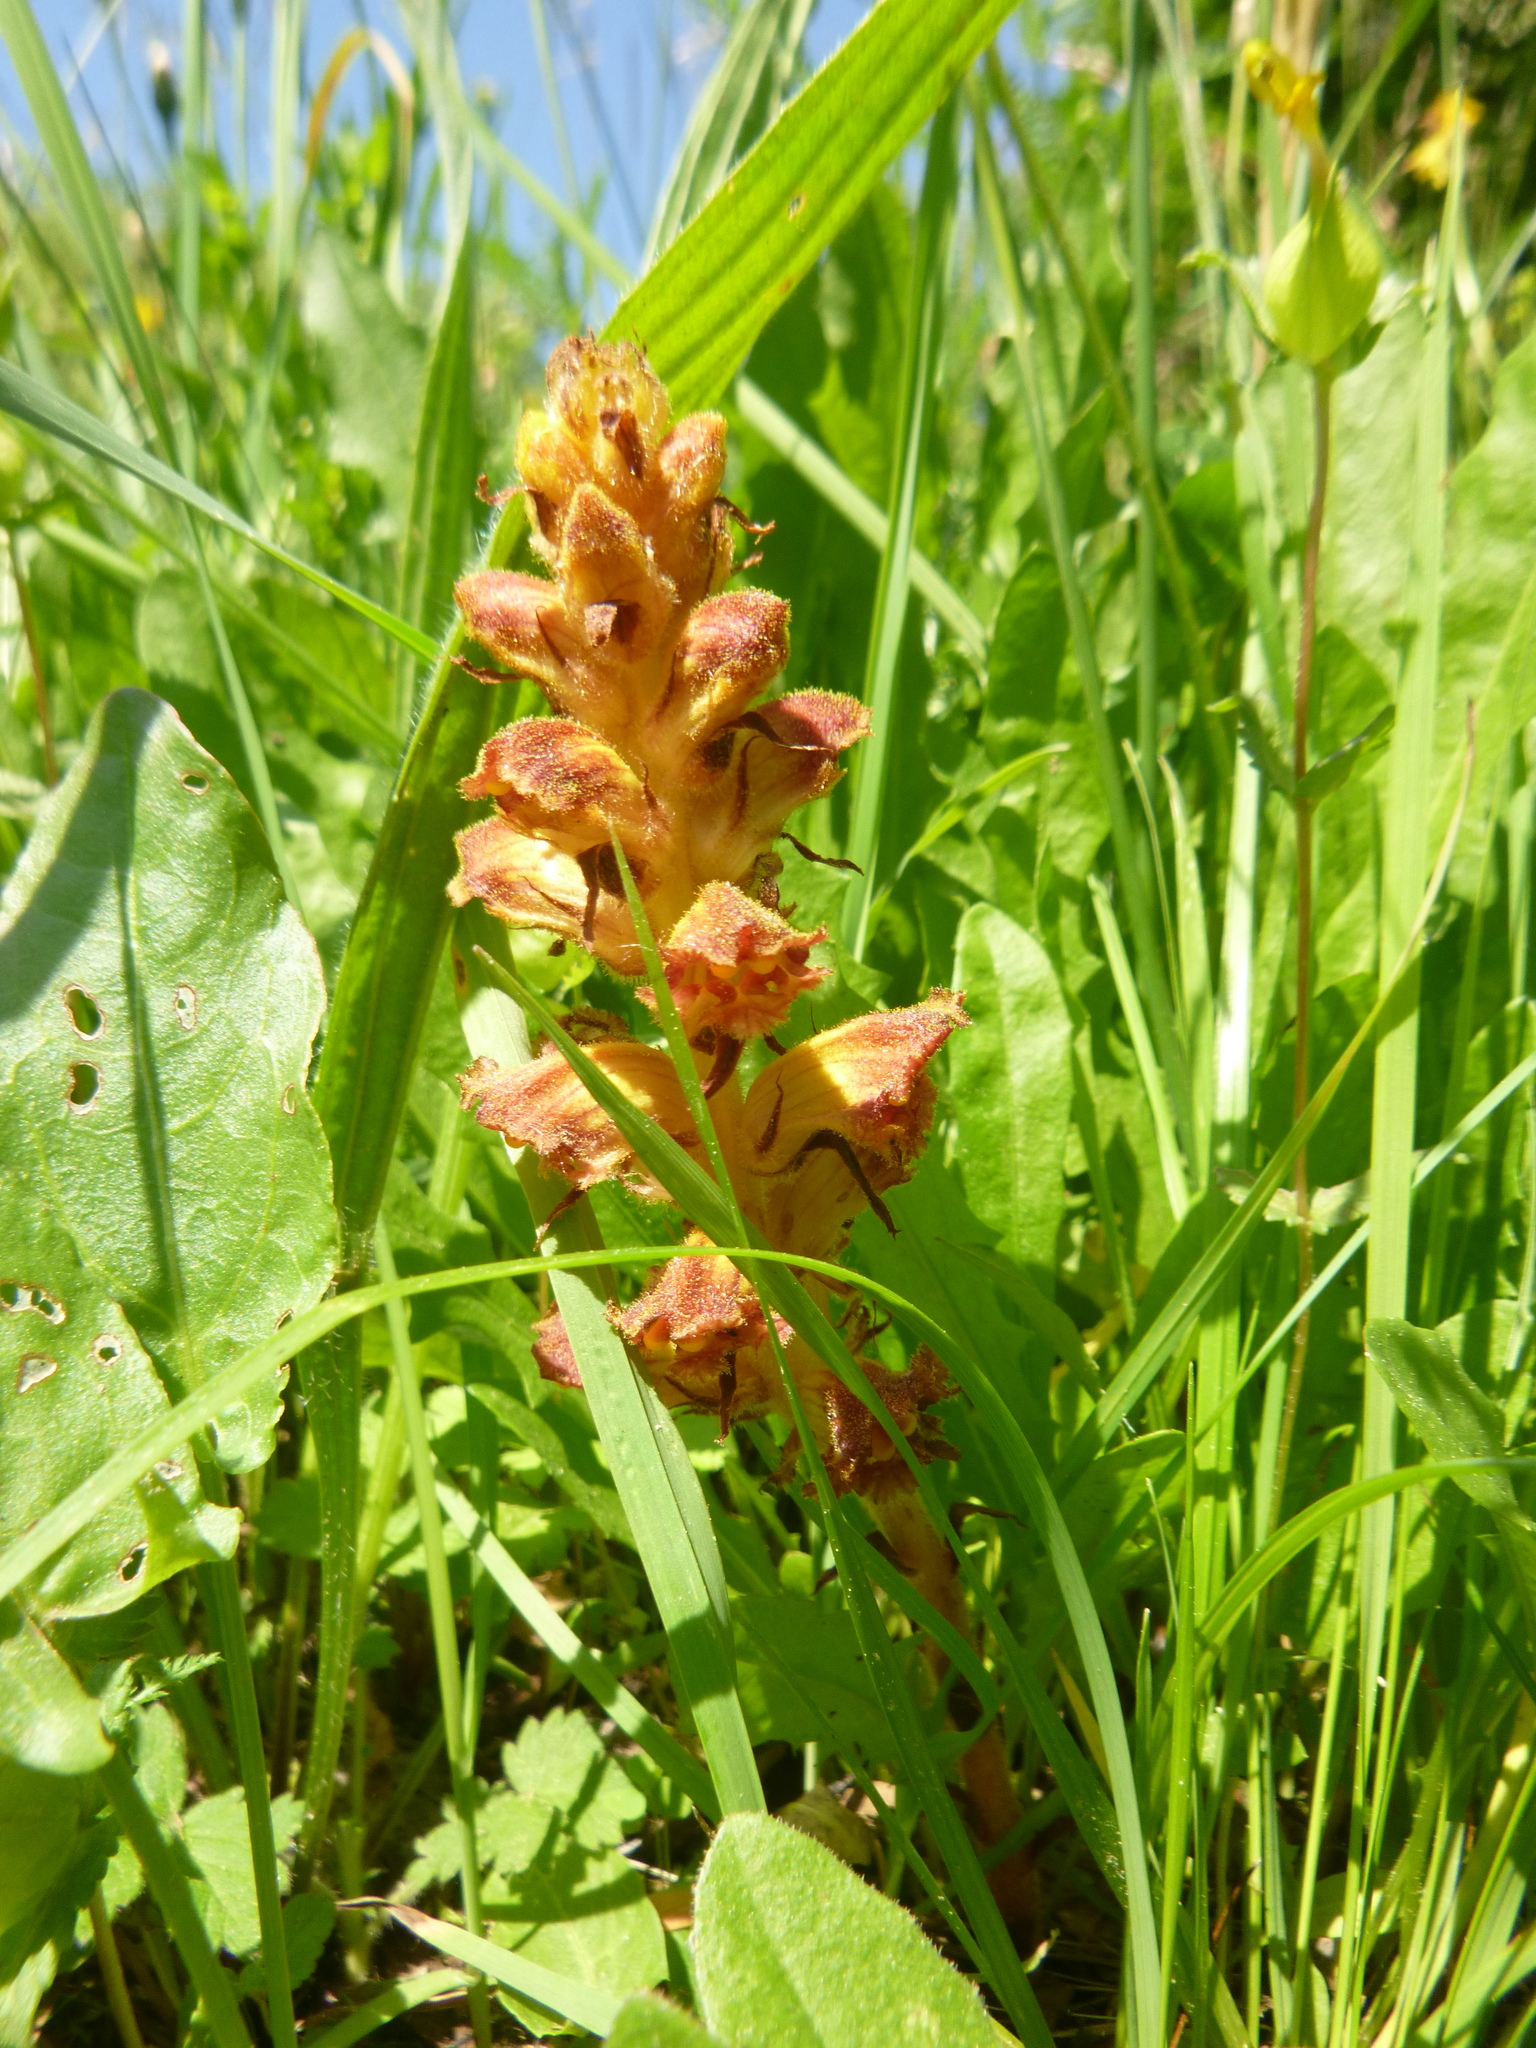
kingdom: Plantae
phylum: Tracheophyta
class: Magnoliopsida
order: Lamiales
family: Orobanchaceae
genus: Orobanche
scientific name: Orobanche gracilis
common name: Slender broomrape
